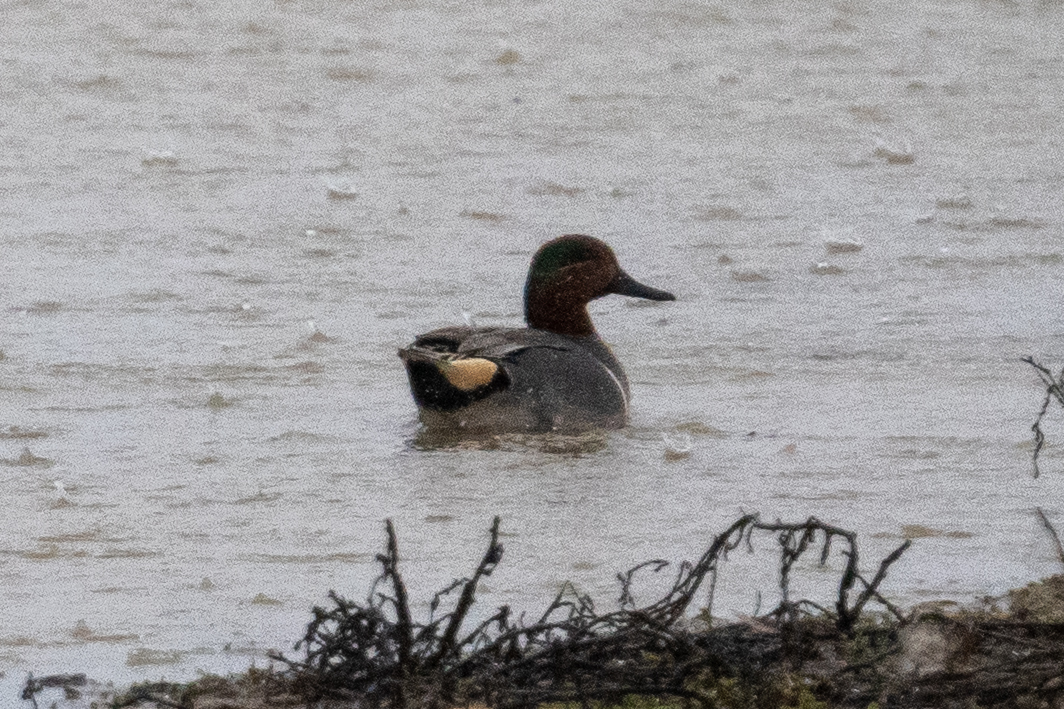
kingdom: Animalia
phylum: Chordata
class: Aves
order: Anseriformes
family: Anatidae
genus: Anas
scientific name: Anas crecca
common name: Eurasian teal
